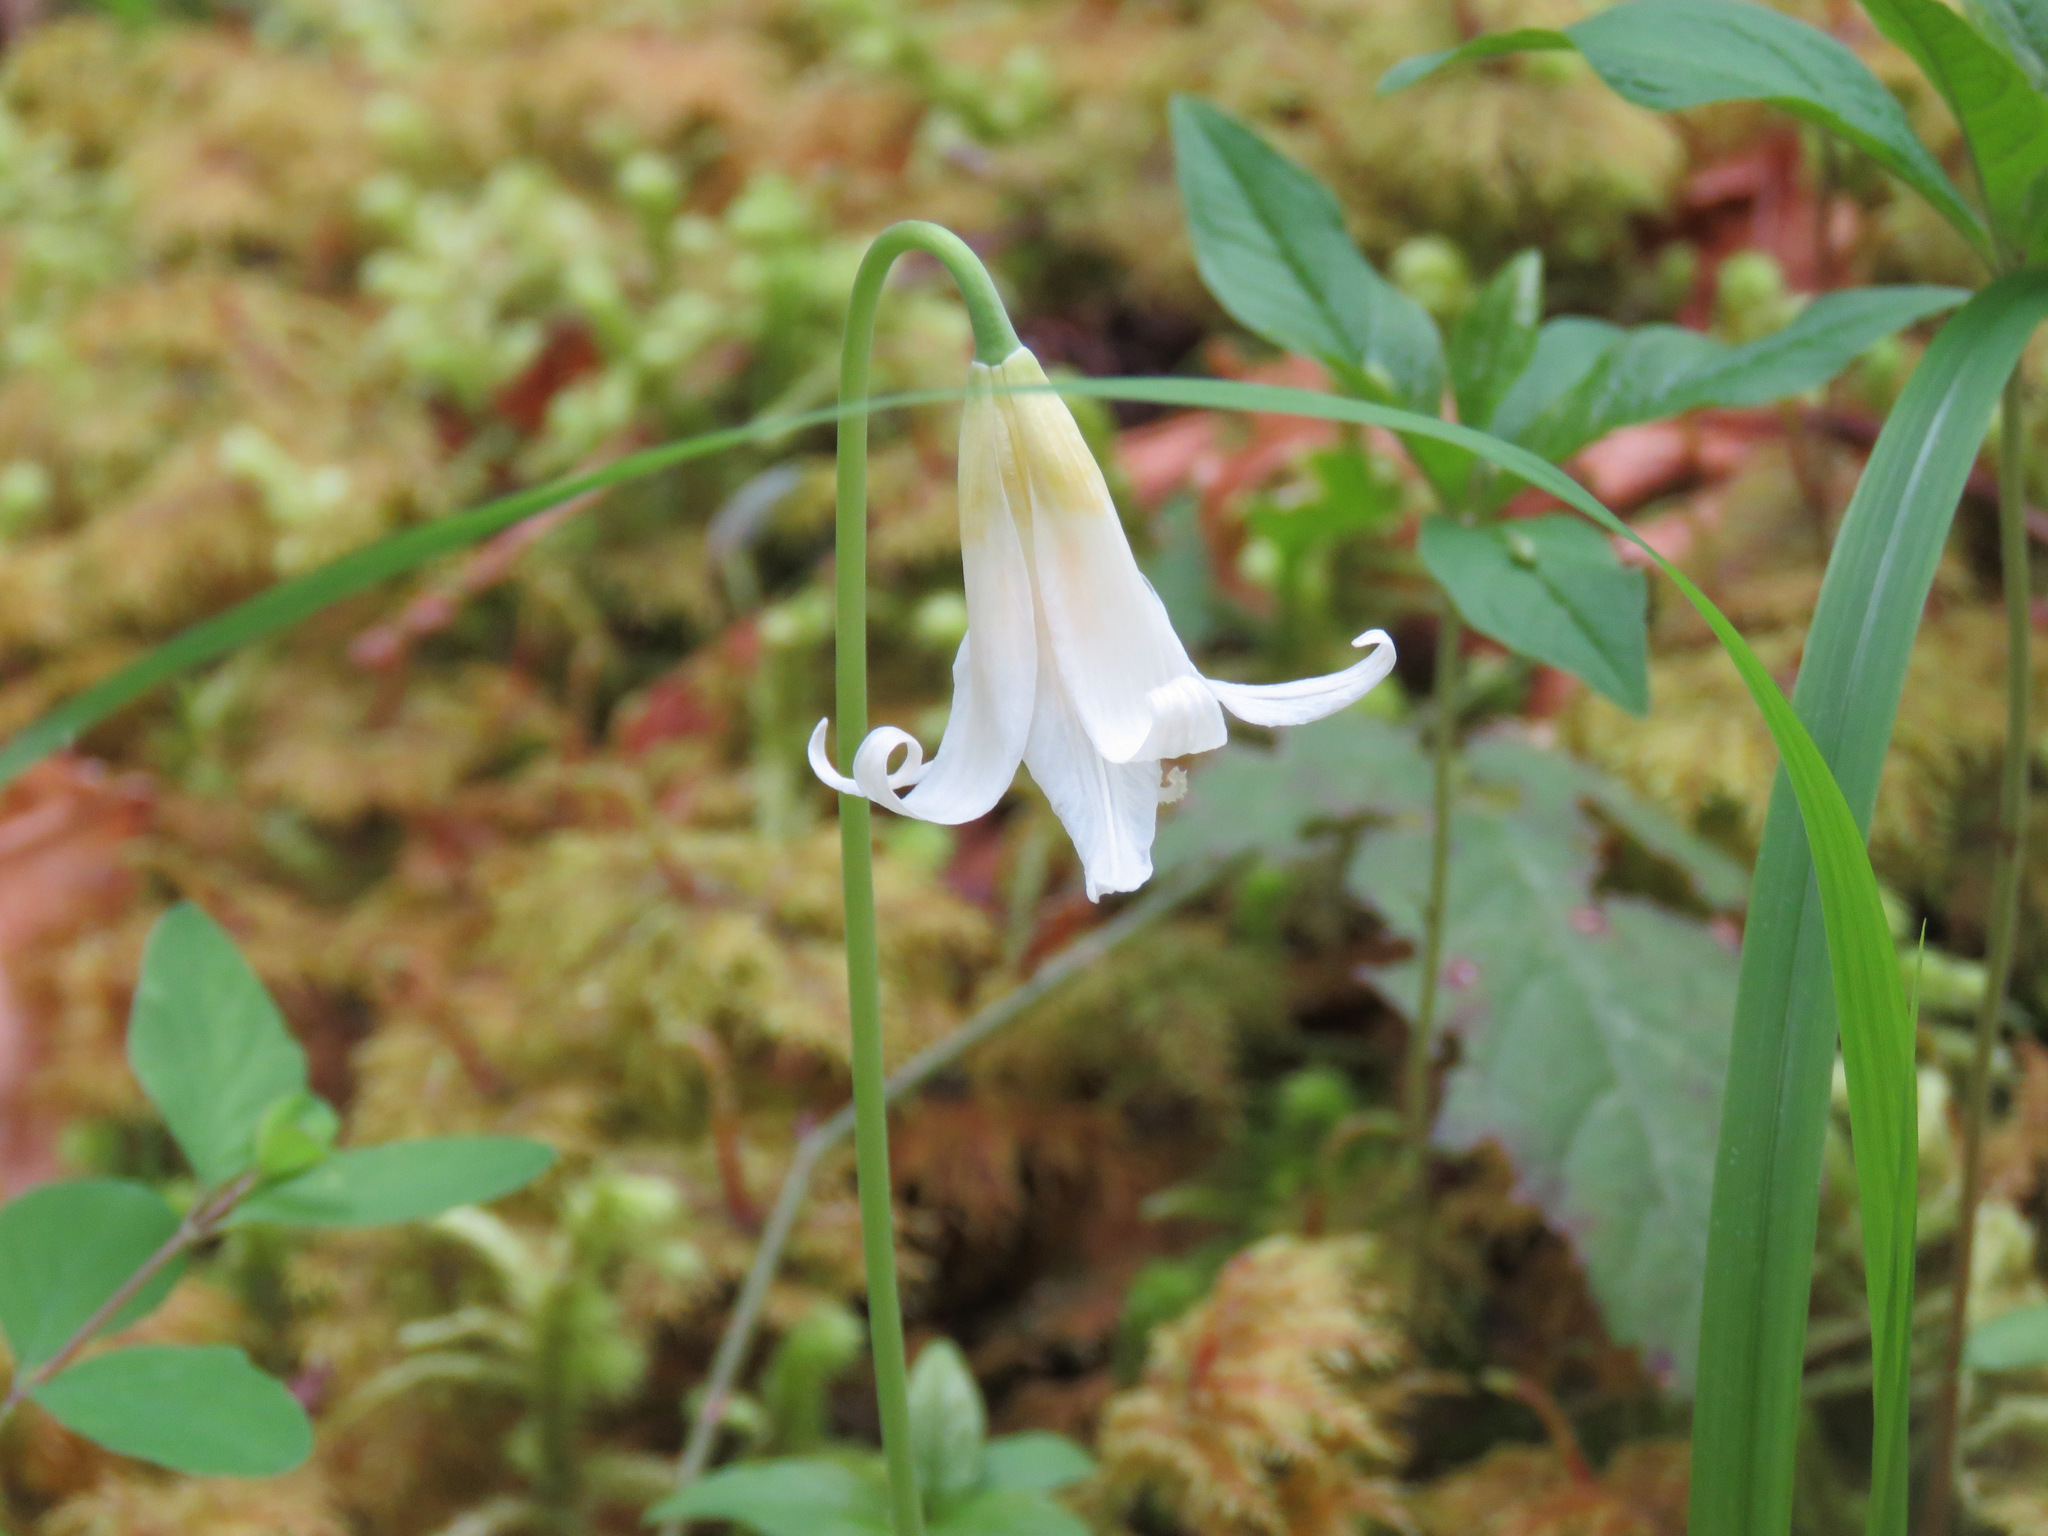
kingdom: Plantae
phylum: Tracheophyta
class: Liliopsida
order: Liliales
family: Liliaceae
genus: Erythronium
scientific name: Erythronium oregonum
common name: Giant adder's-tongue
